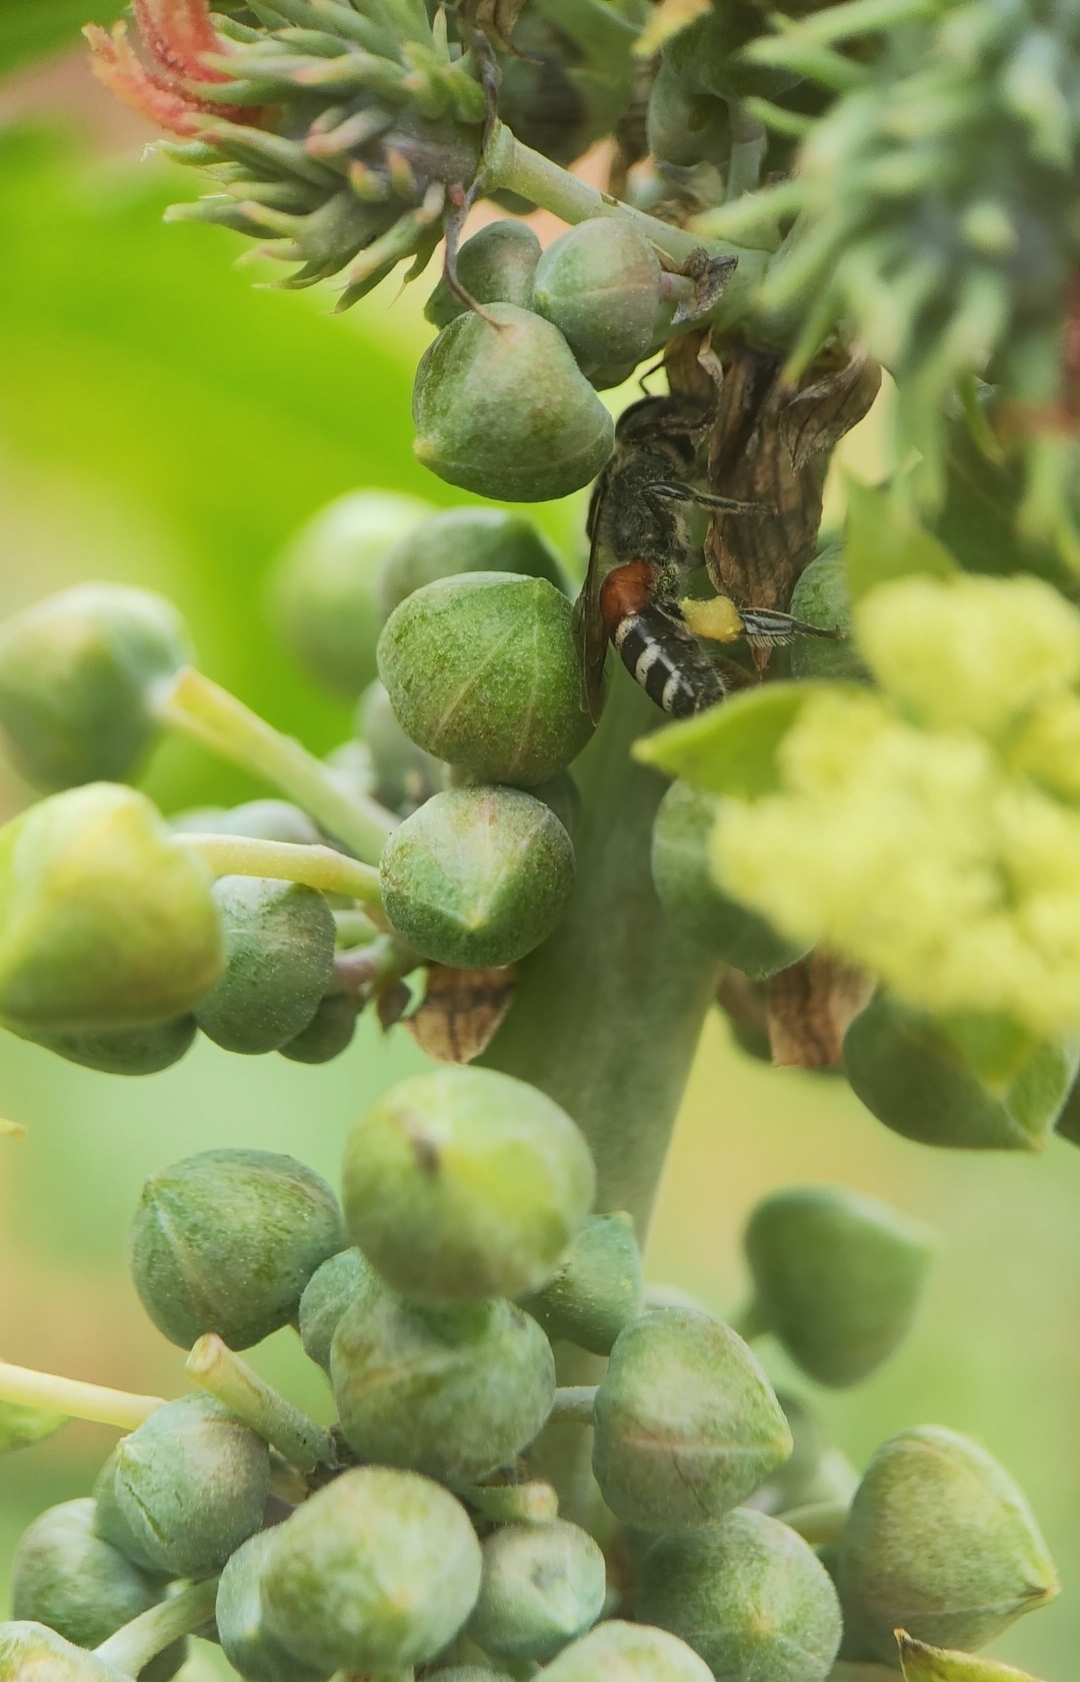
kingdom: Animalia
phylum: Arthropoda
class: Insecta
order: Hymenoptera
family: Apidae
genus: Apis
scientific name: Apis florea
